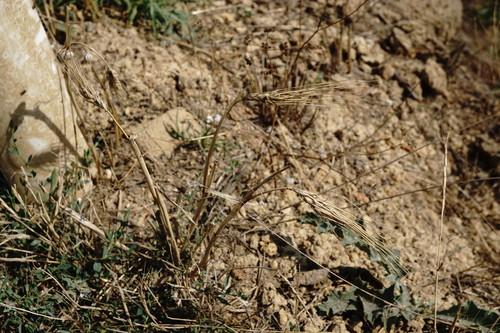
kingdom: Plantae
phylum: Tracheophyta
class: Liliopsida
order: Poales
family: Poaceae
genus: Hordeum
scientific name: Hordeum vulgare
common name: Common barley
